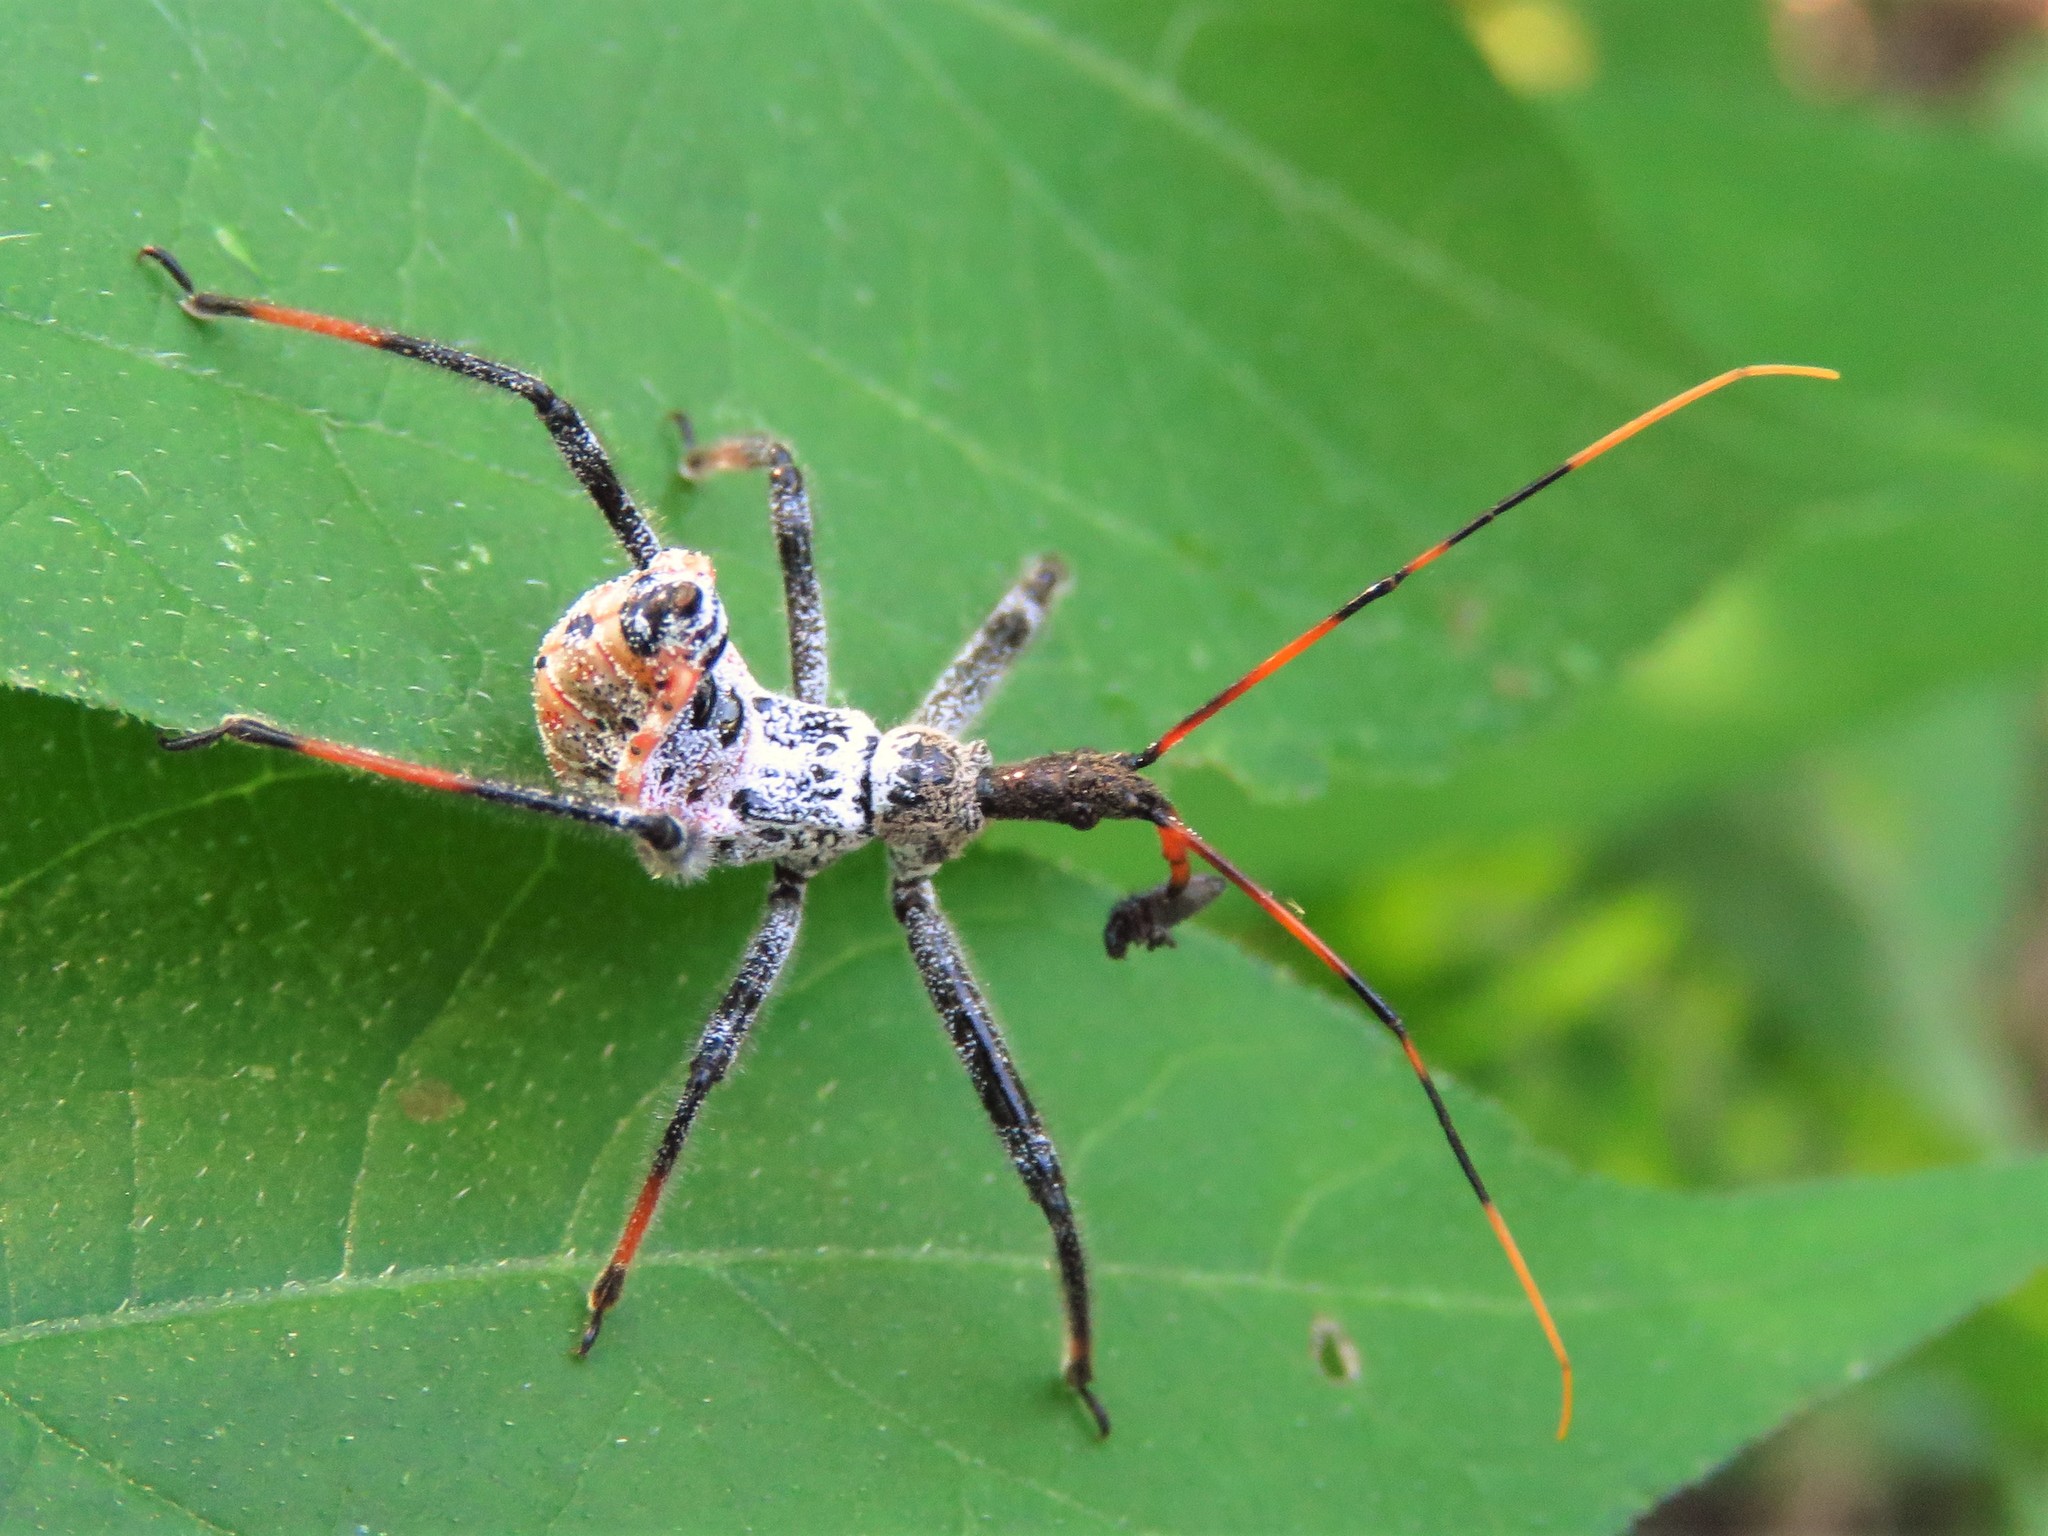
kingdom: Animalia
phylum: Arthropoda
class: Insecta
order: Hemiptera
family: Reduviidae
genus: Arilus
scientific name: Arilus cristatus
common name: North american wheel bug
